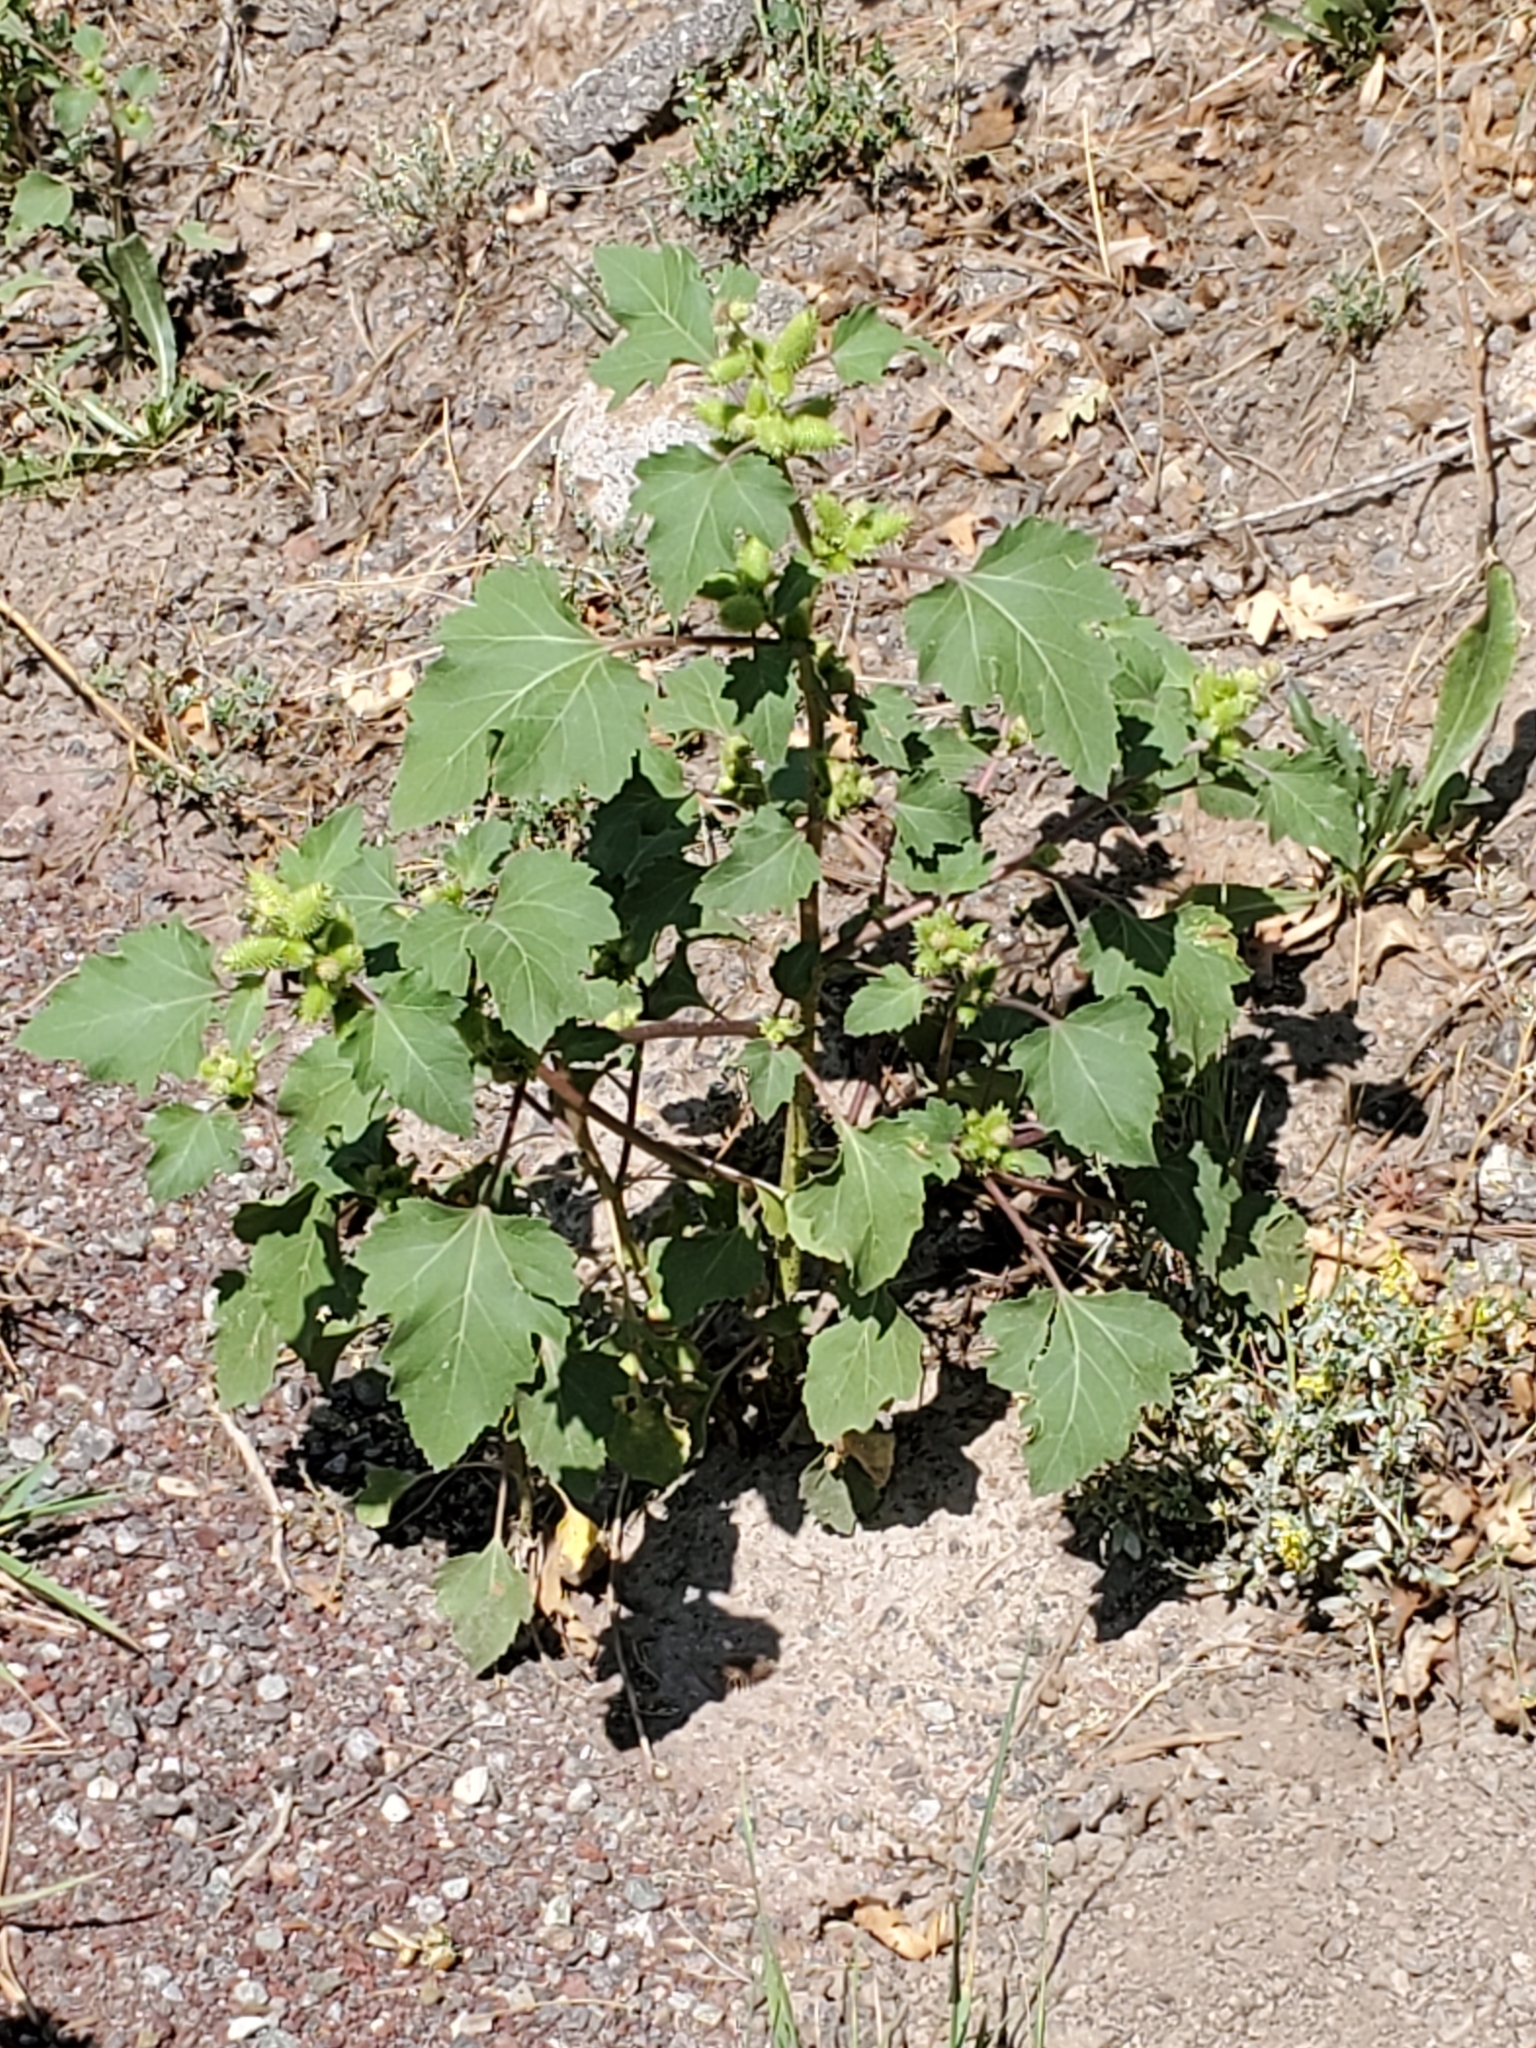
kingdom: Plantae
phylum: Tracheophyta
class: Magnoliopsida
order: Asterales
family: Asteraceae
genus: Xanthium
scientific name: Xanthium strumarium
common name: Rough cocklebur
